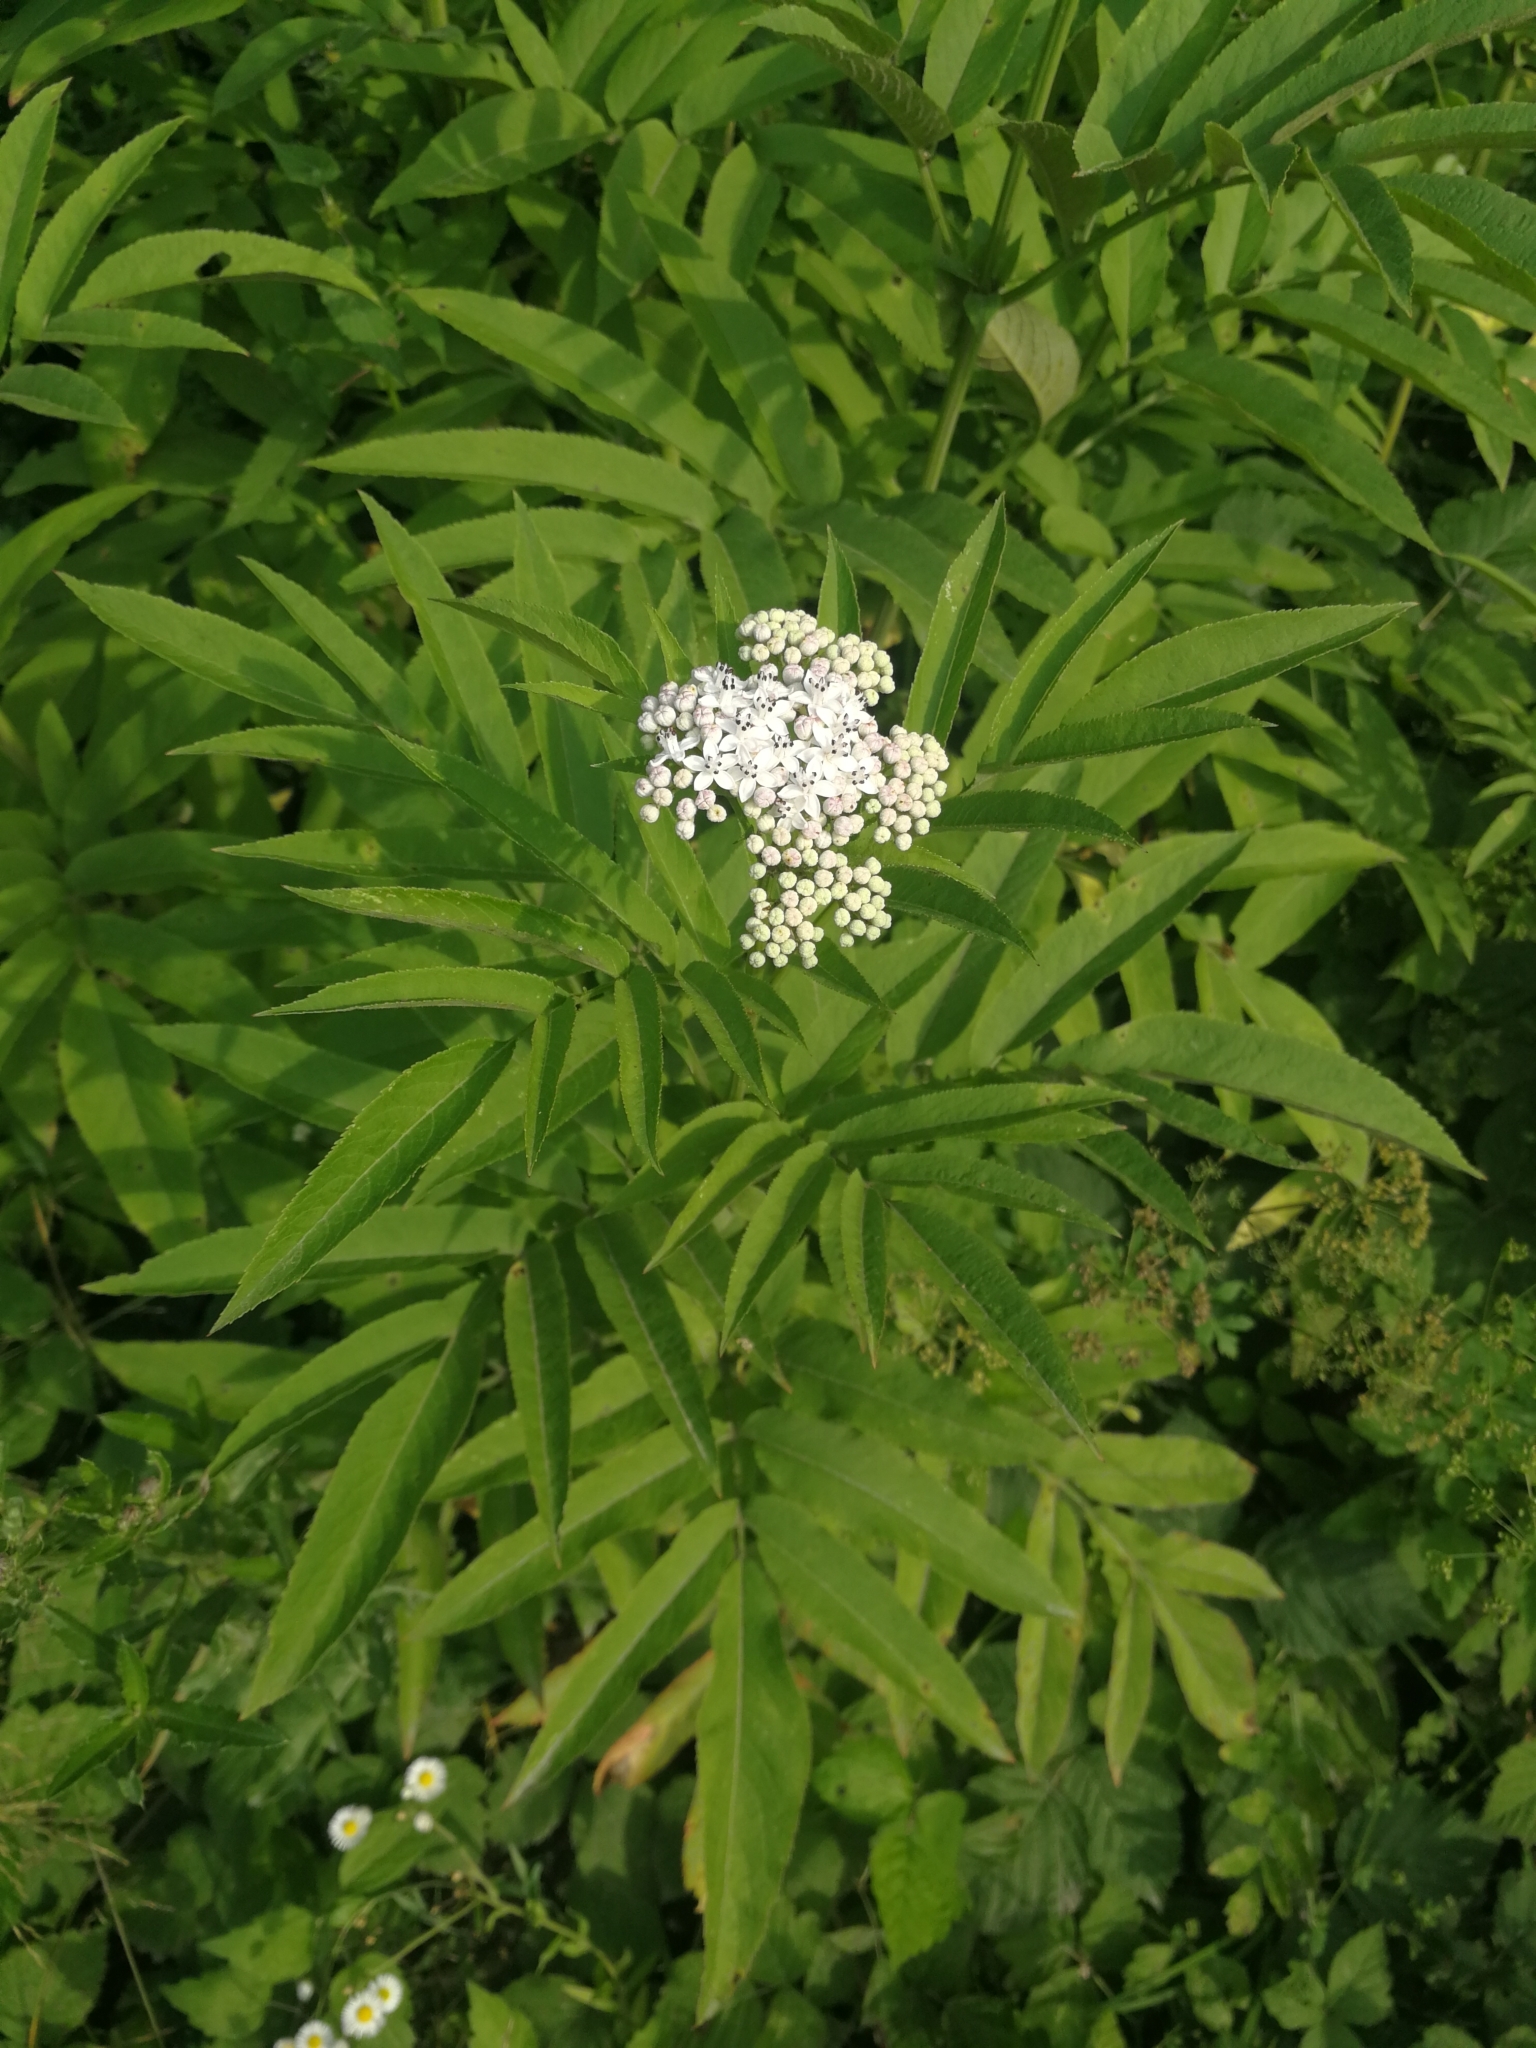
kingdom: Plantae
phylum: Tracheophyta
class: Magnoliopsida
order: Dipsacales
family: Viburnaceae
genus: Sambucus
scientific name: Sambucus ebulus
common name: Dwarf elder
